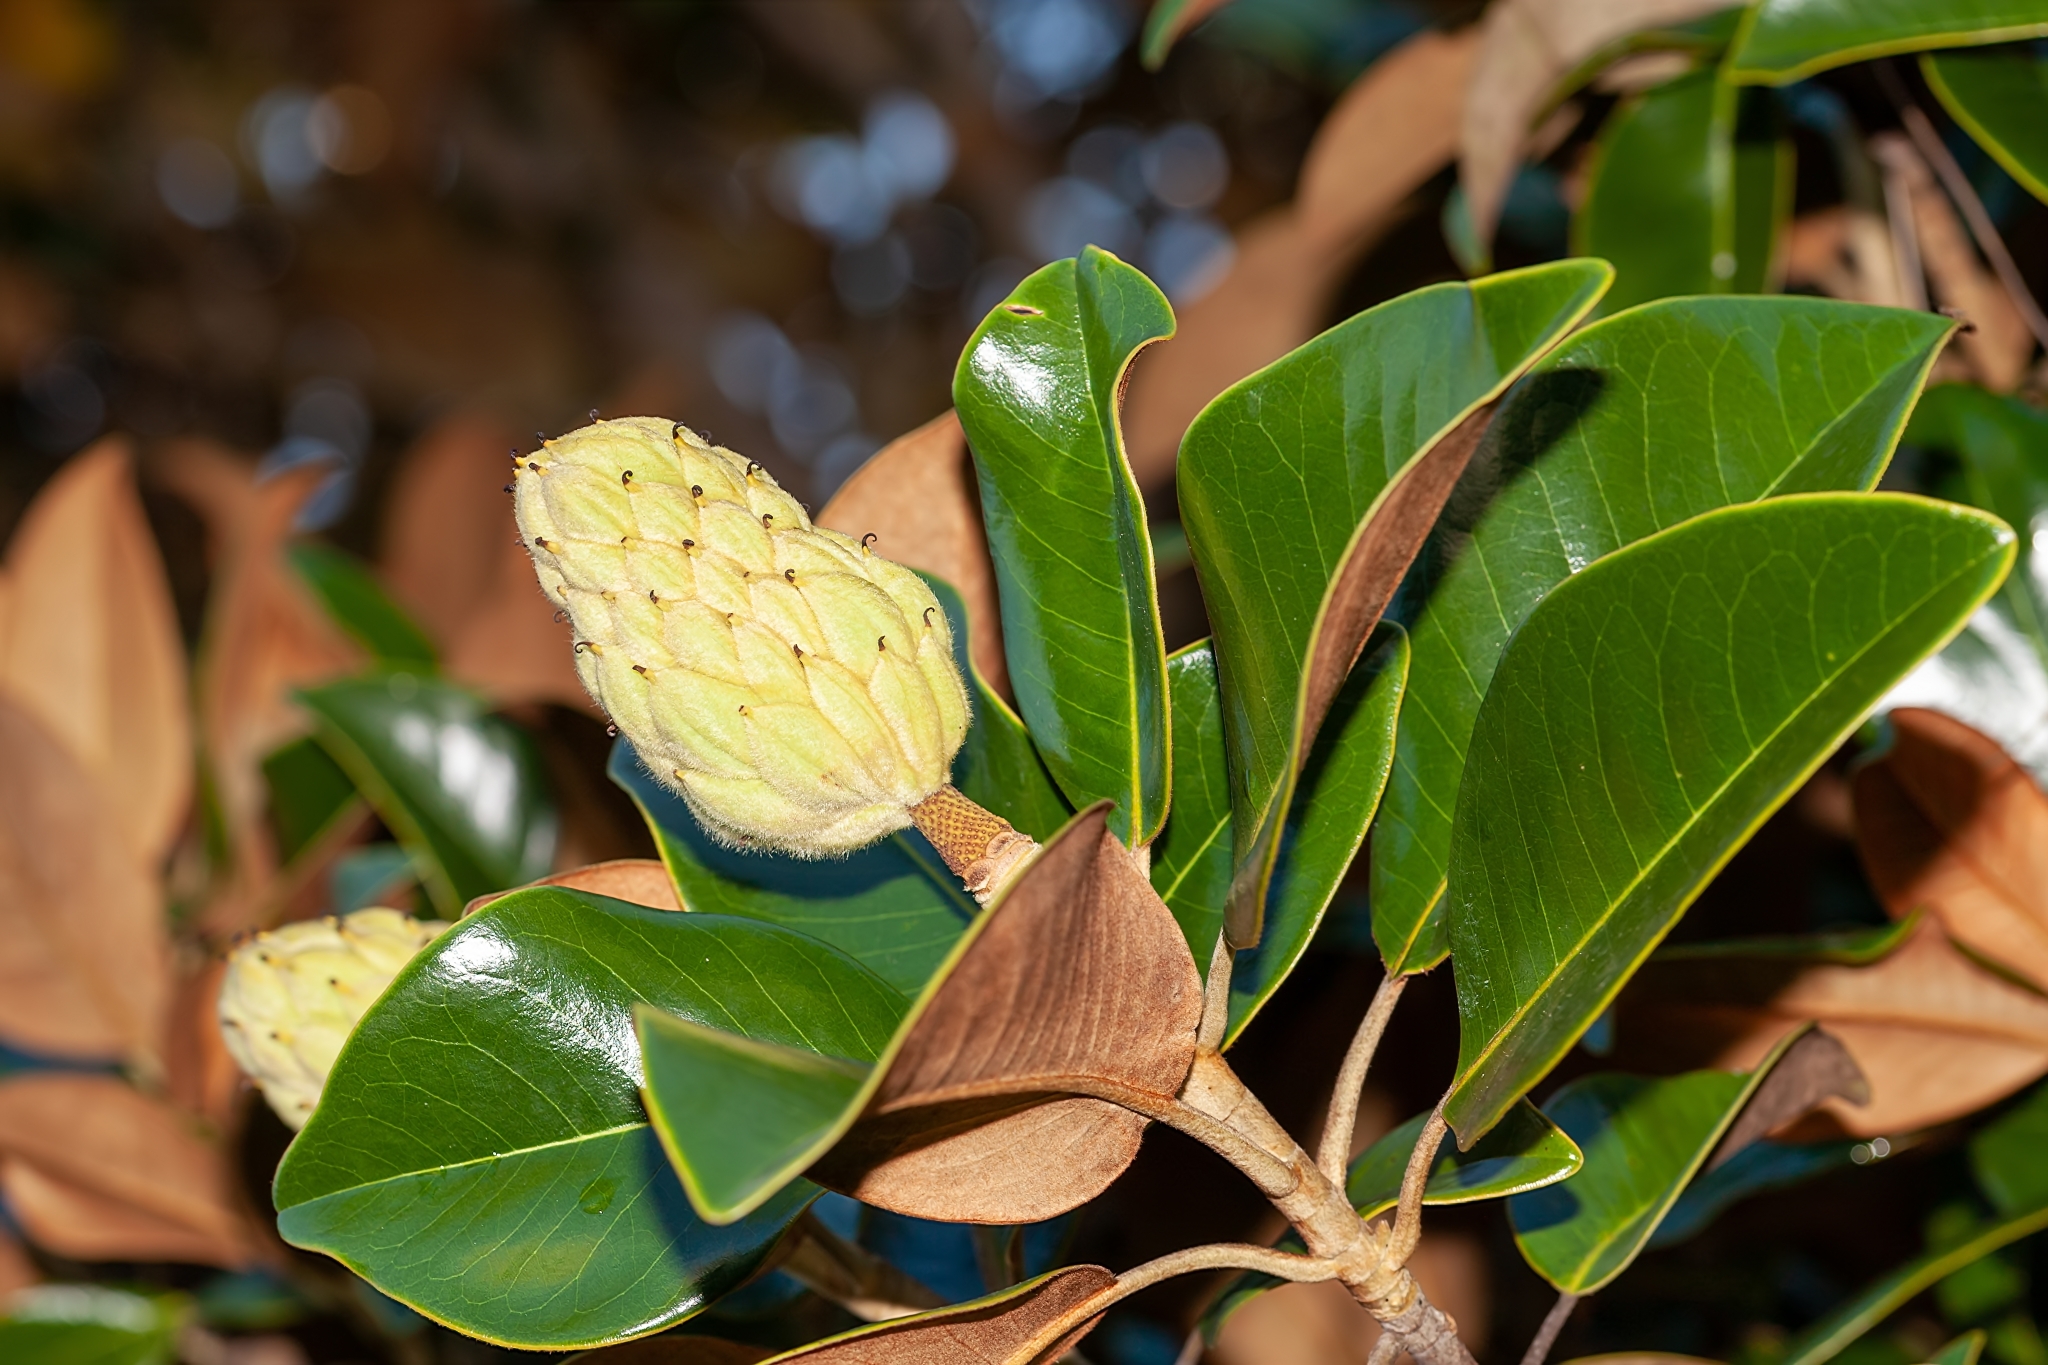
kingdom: Plantae
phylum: Tracheophyta
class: Magnoliopsida
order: Magnoliales
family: Magnoliaceae
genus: Magnolia
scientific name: Magnolia grandiflora
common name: Southern magnolia
